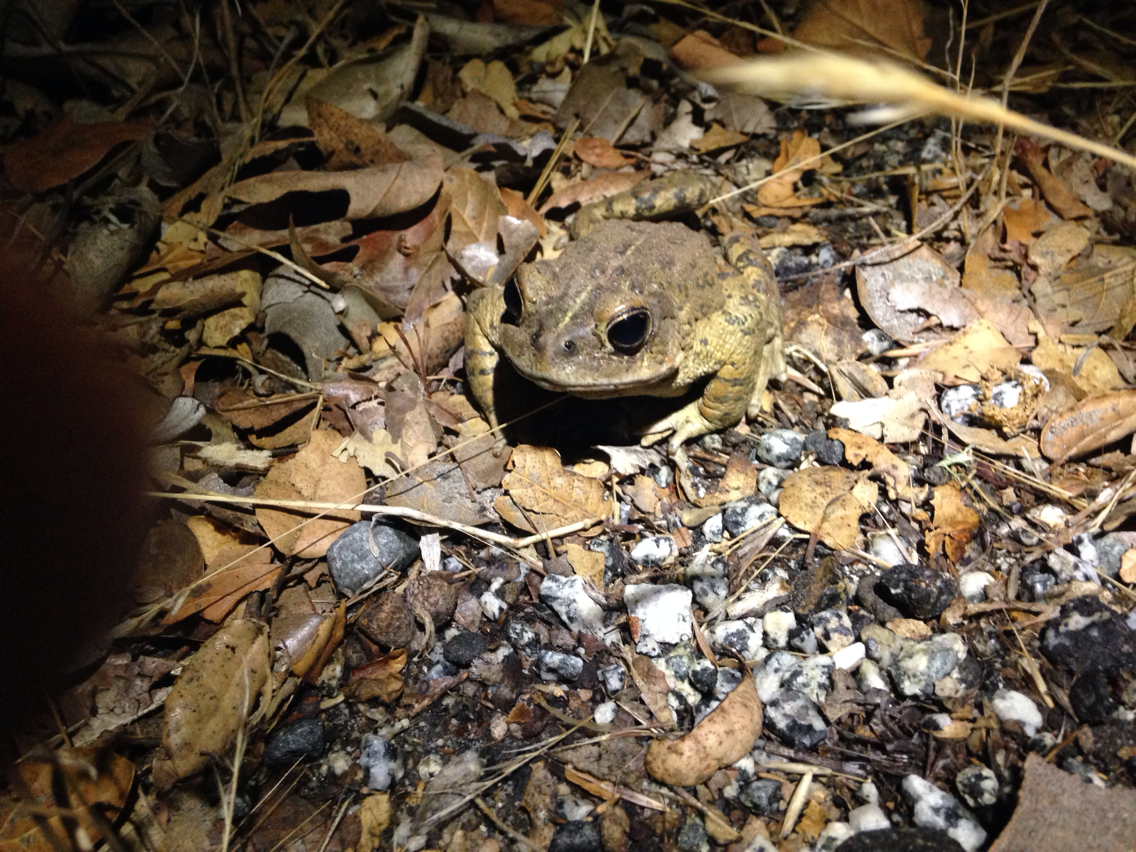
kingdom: Animalia
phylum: Chordata
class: Amphibia
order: Anura
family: Bufonidae
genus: Anaxyrus
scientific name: Anaxyrus boreas
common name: Western toad
